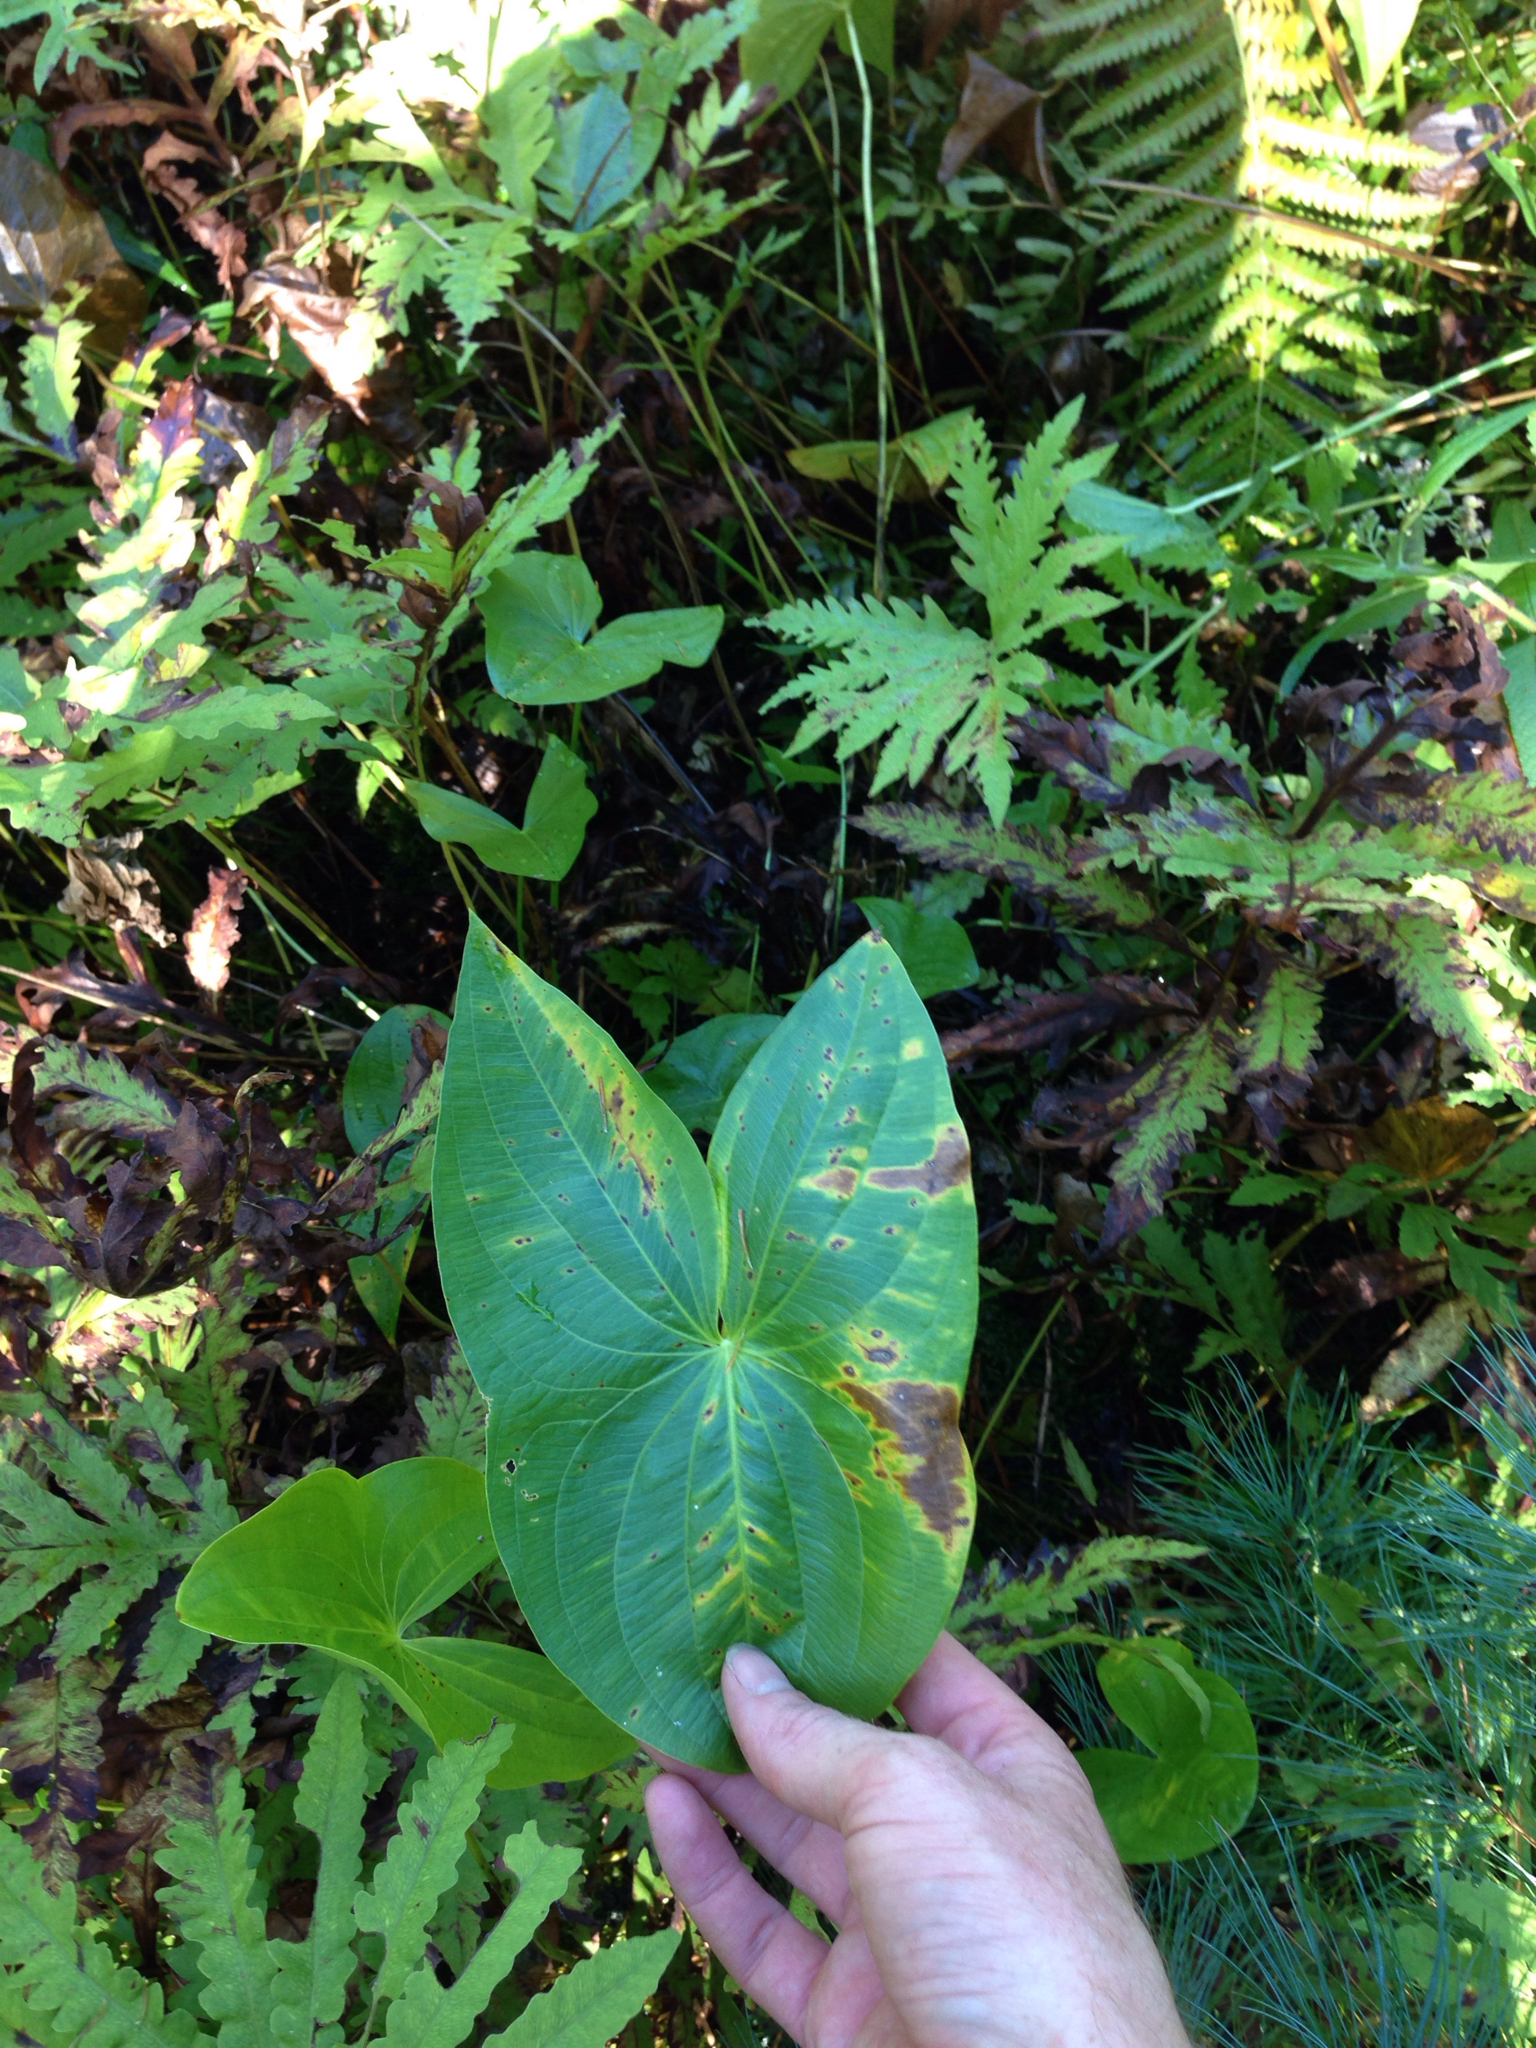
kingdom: Plantae
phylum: Tracheophyta
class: Liliopsida
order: Alismatales
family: Alismataceae
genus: Sagittaria
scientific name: Sagittaria latifolia
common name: Duck-potato
